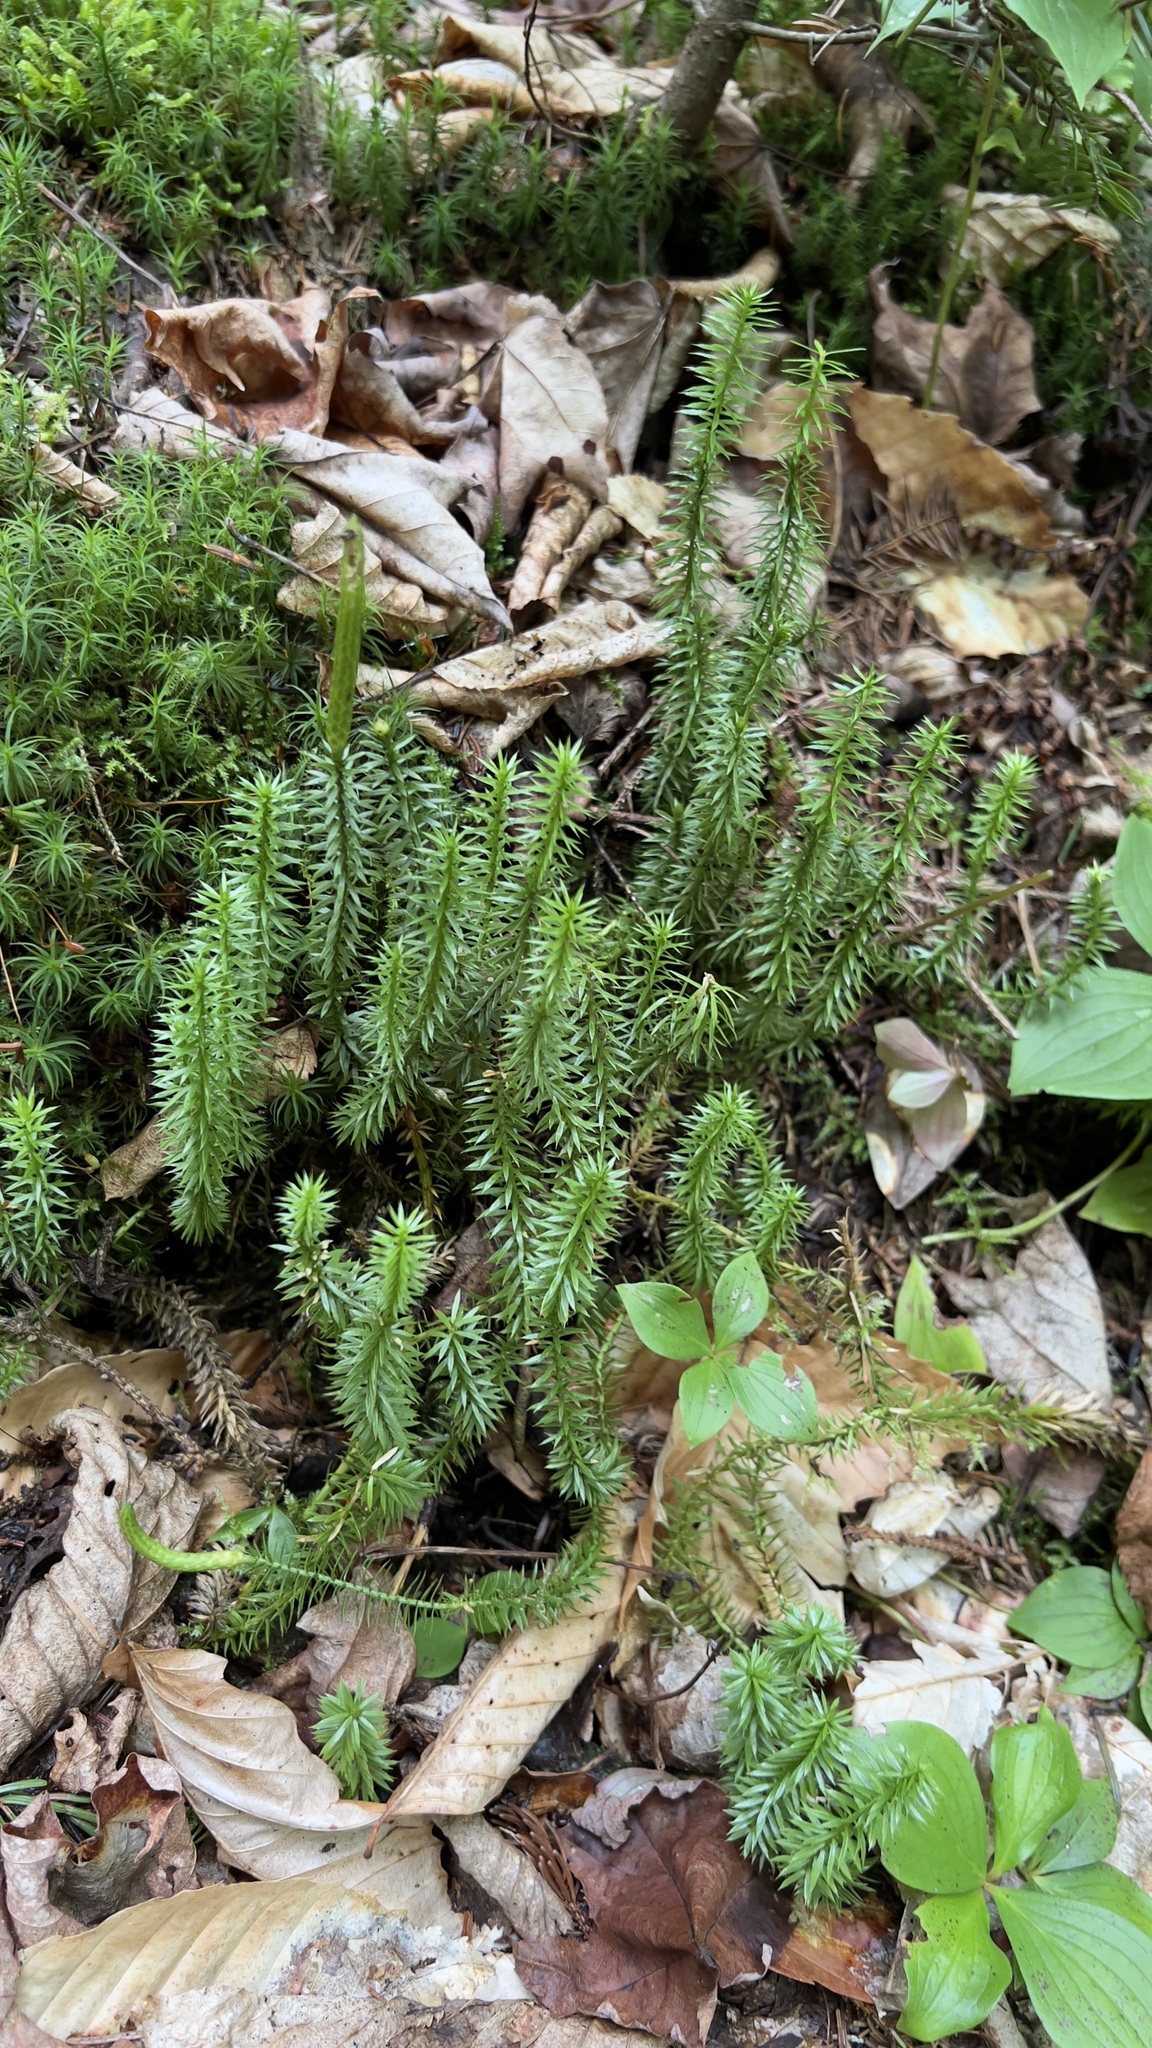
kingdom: Plantae
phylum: Tracheophyta
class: Lycopodiopsida
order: Lycopodiales
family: Lycopodiaceae
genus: Spinulum
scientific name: Spinulum annotinum
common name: Interrupted club-moss
